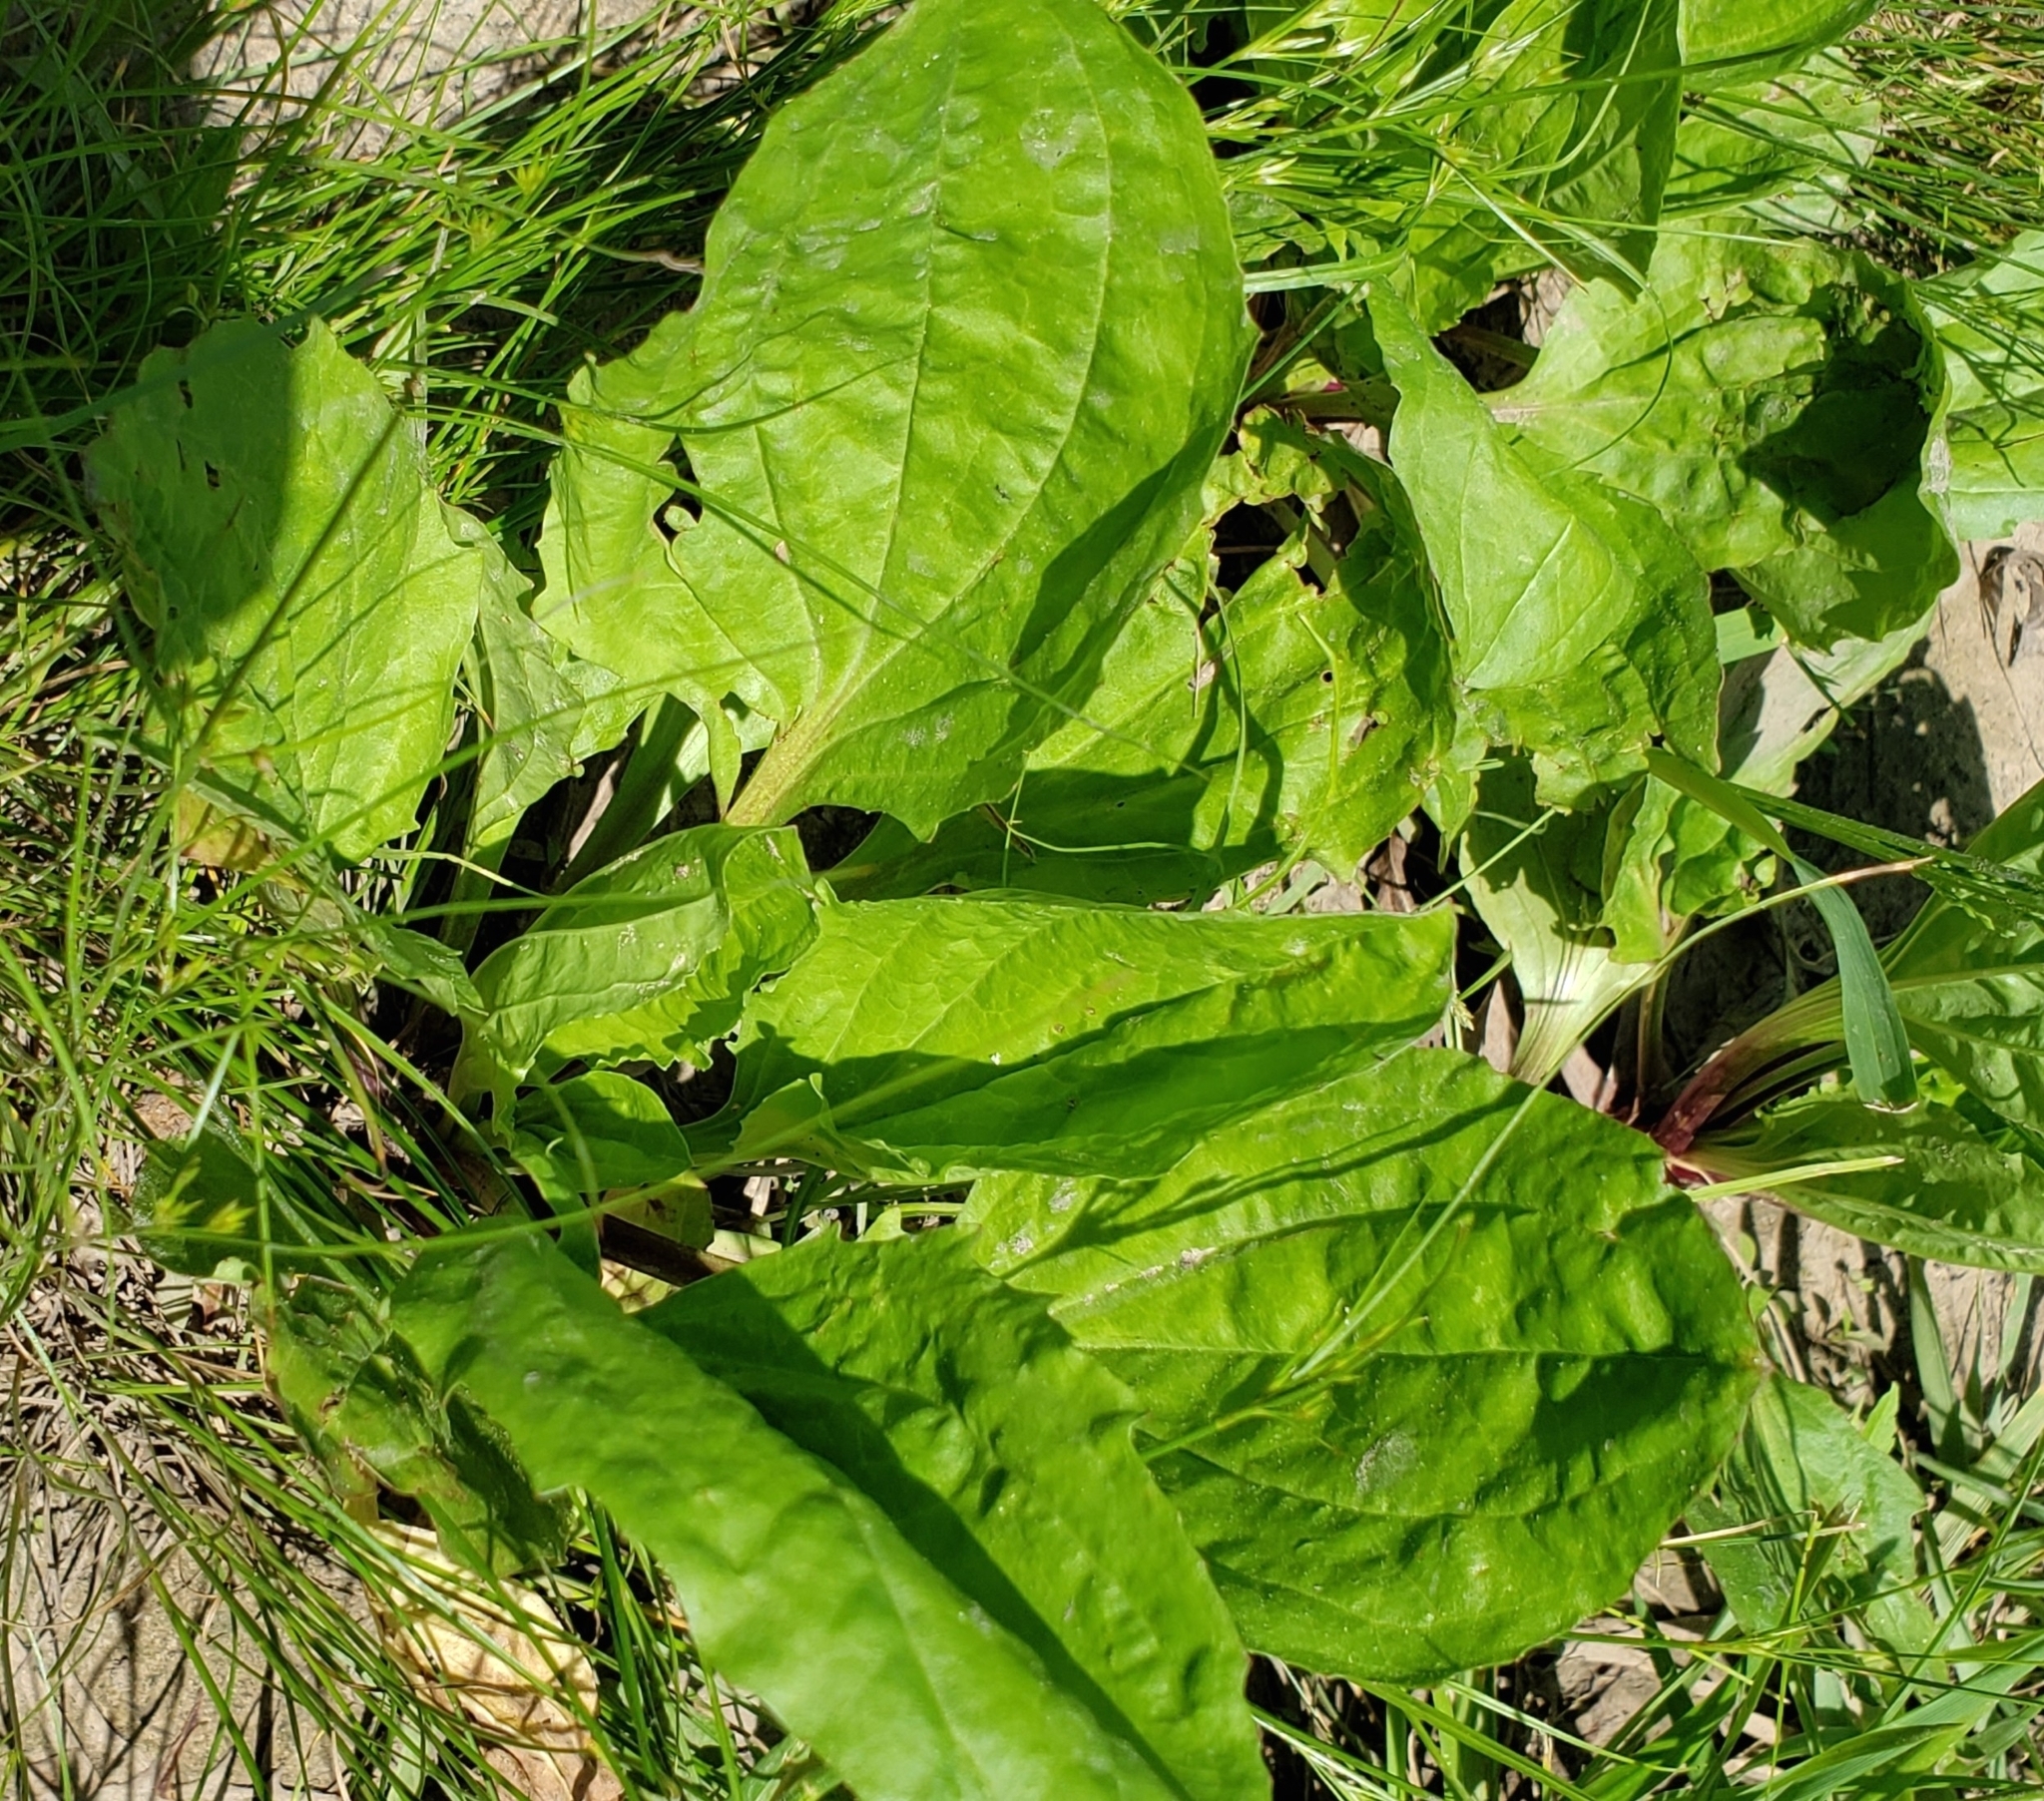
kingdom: Plantae
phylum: Tracheophyta
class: Magnoliopsida
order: Lamiales
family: Plantaginaceae
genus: Plantago
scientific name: Plantago rugelii
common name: American plantain
